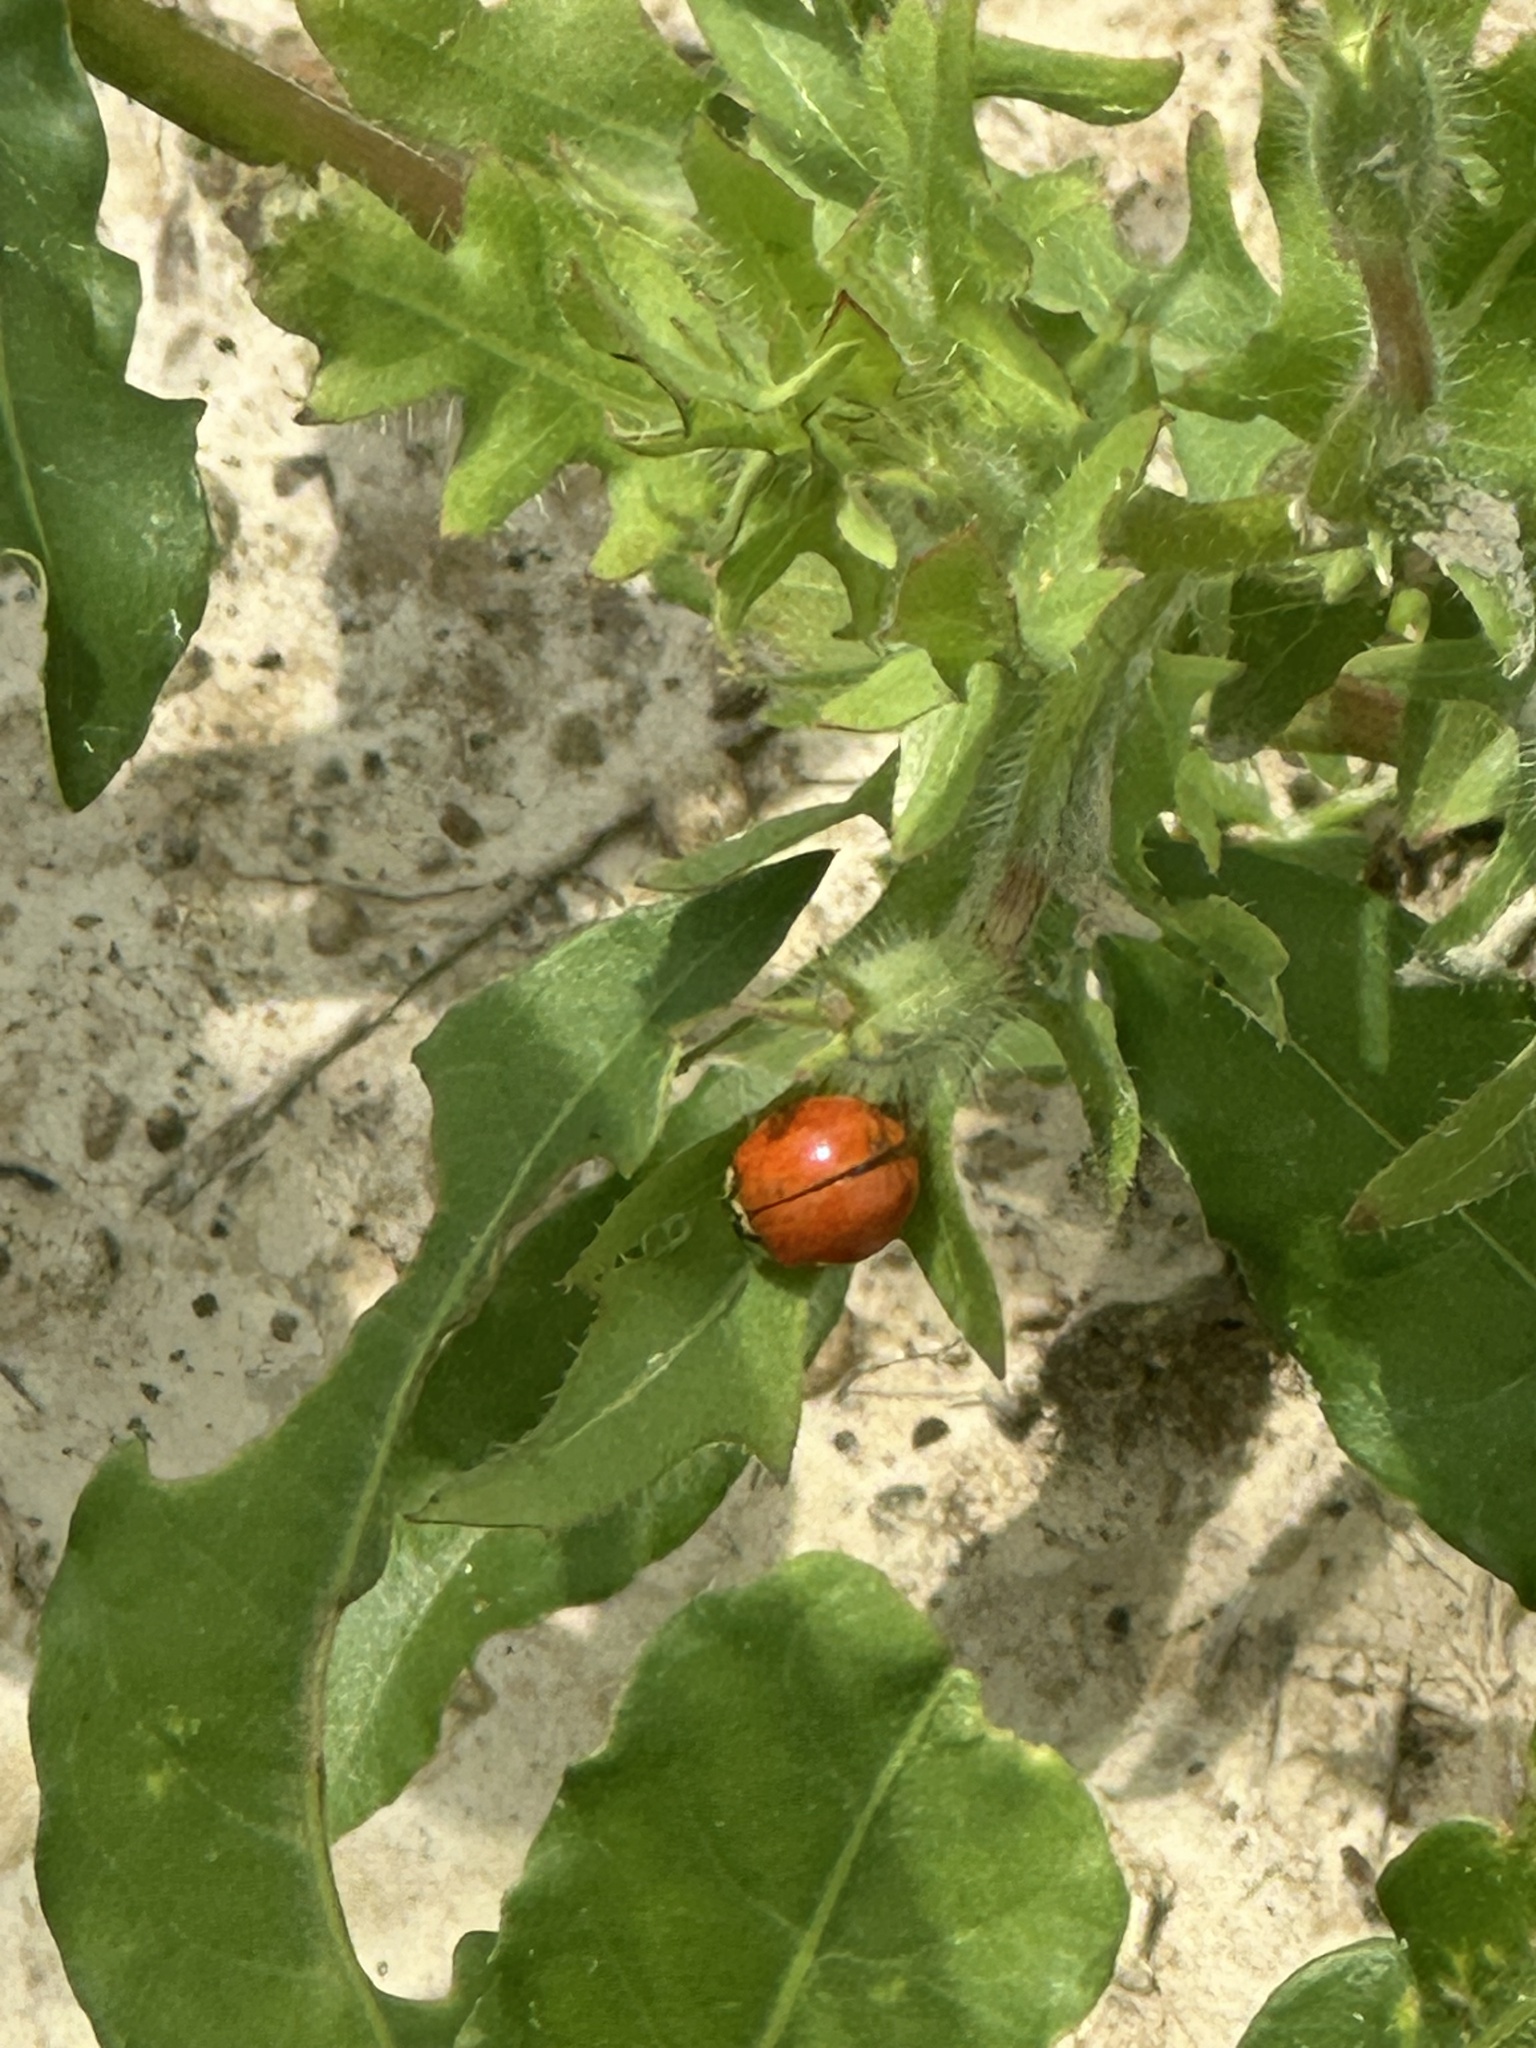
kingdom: Animalia
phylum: Arthropoda
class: Insecta
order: Coleoptera
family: Coccinellidae
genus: Harmonia
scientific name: Harmonia axyridis
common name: Harlequin ladybird
